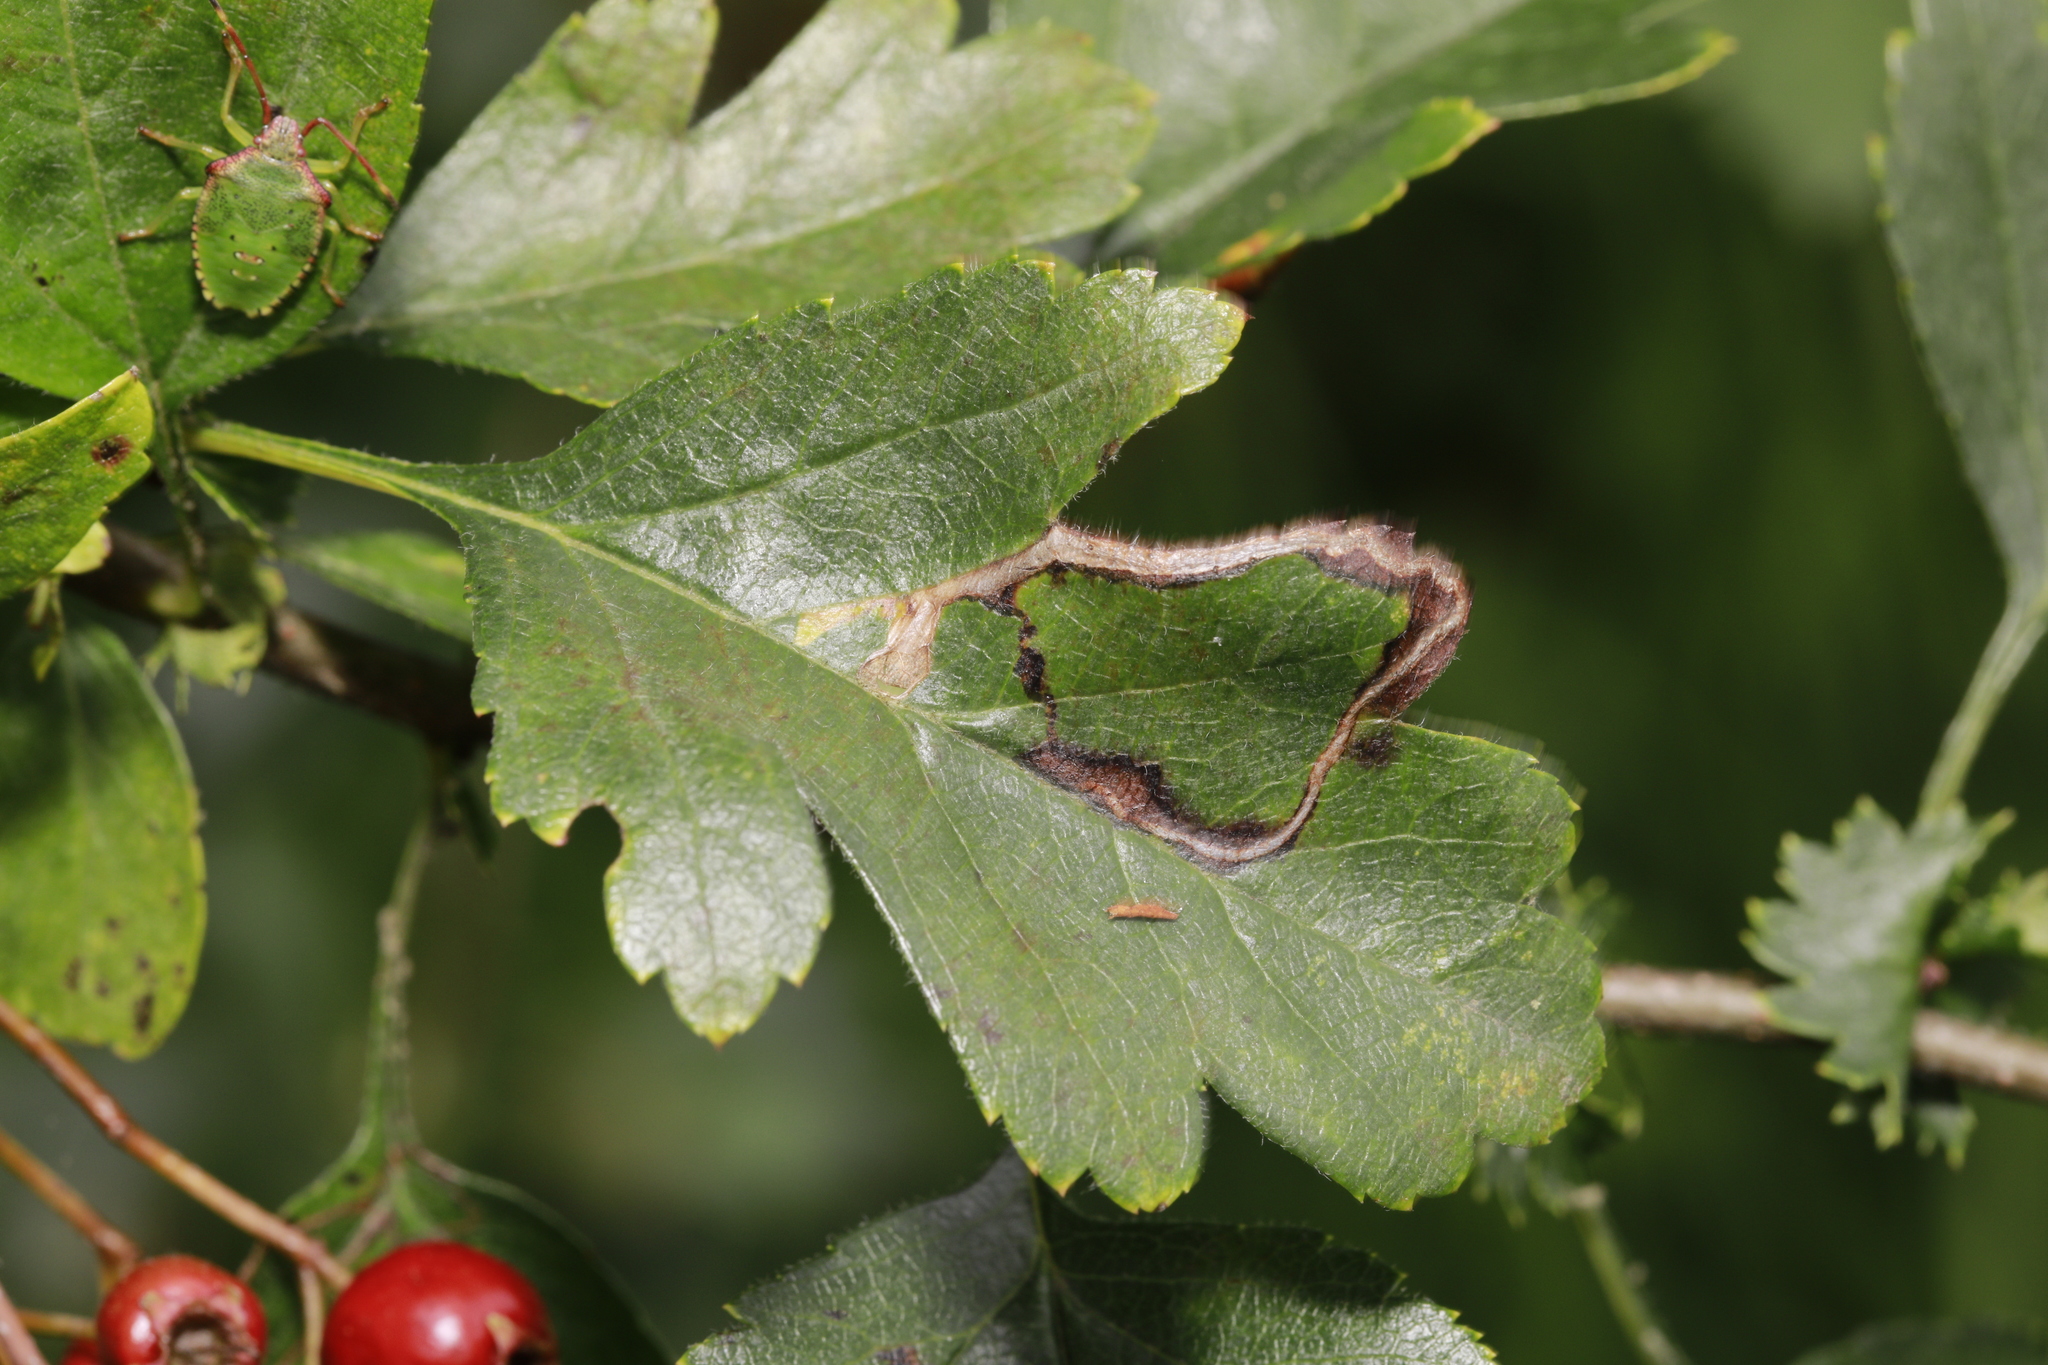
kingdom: Animalia
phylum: Arthropoda
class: Insecta
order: Lepidoptera
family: Lyonetiidae
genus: Lyonetia
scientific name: Lyonetia clerkella
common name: Apple leaf miner
